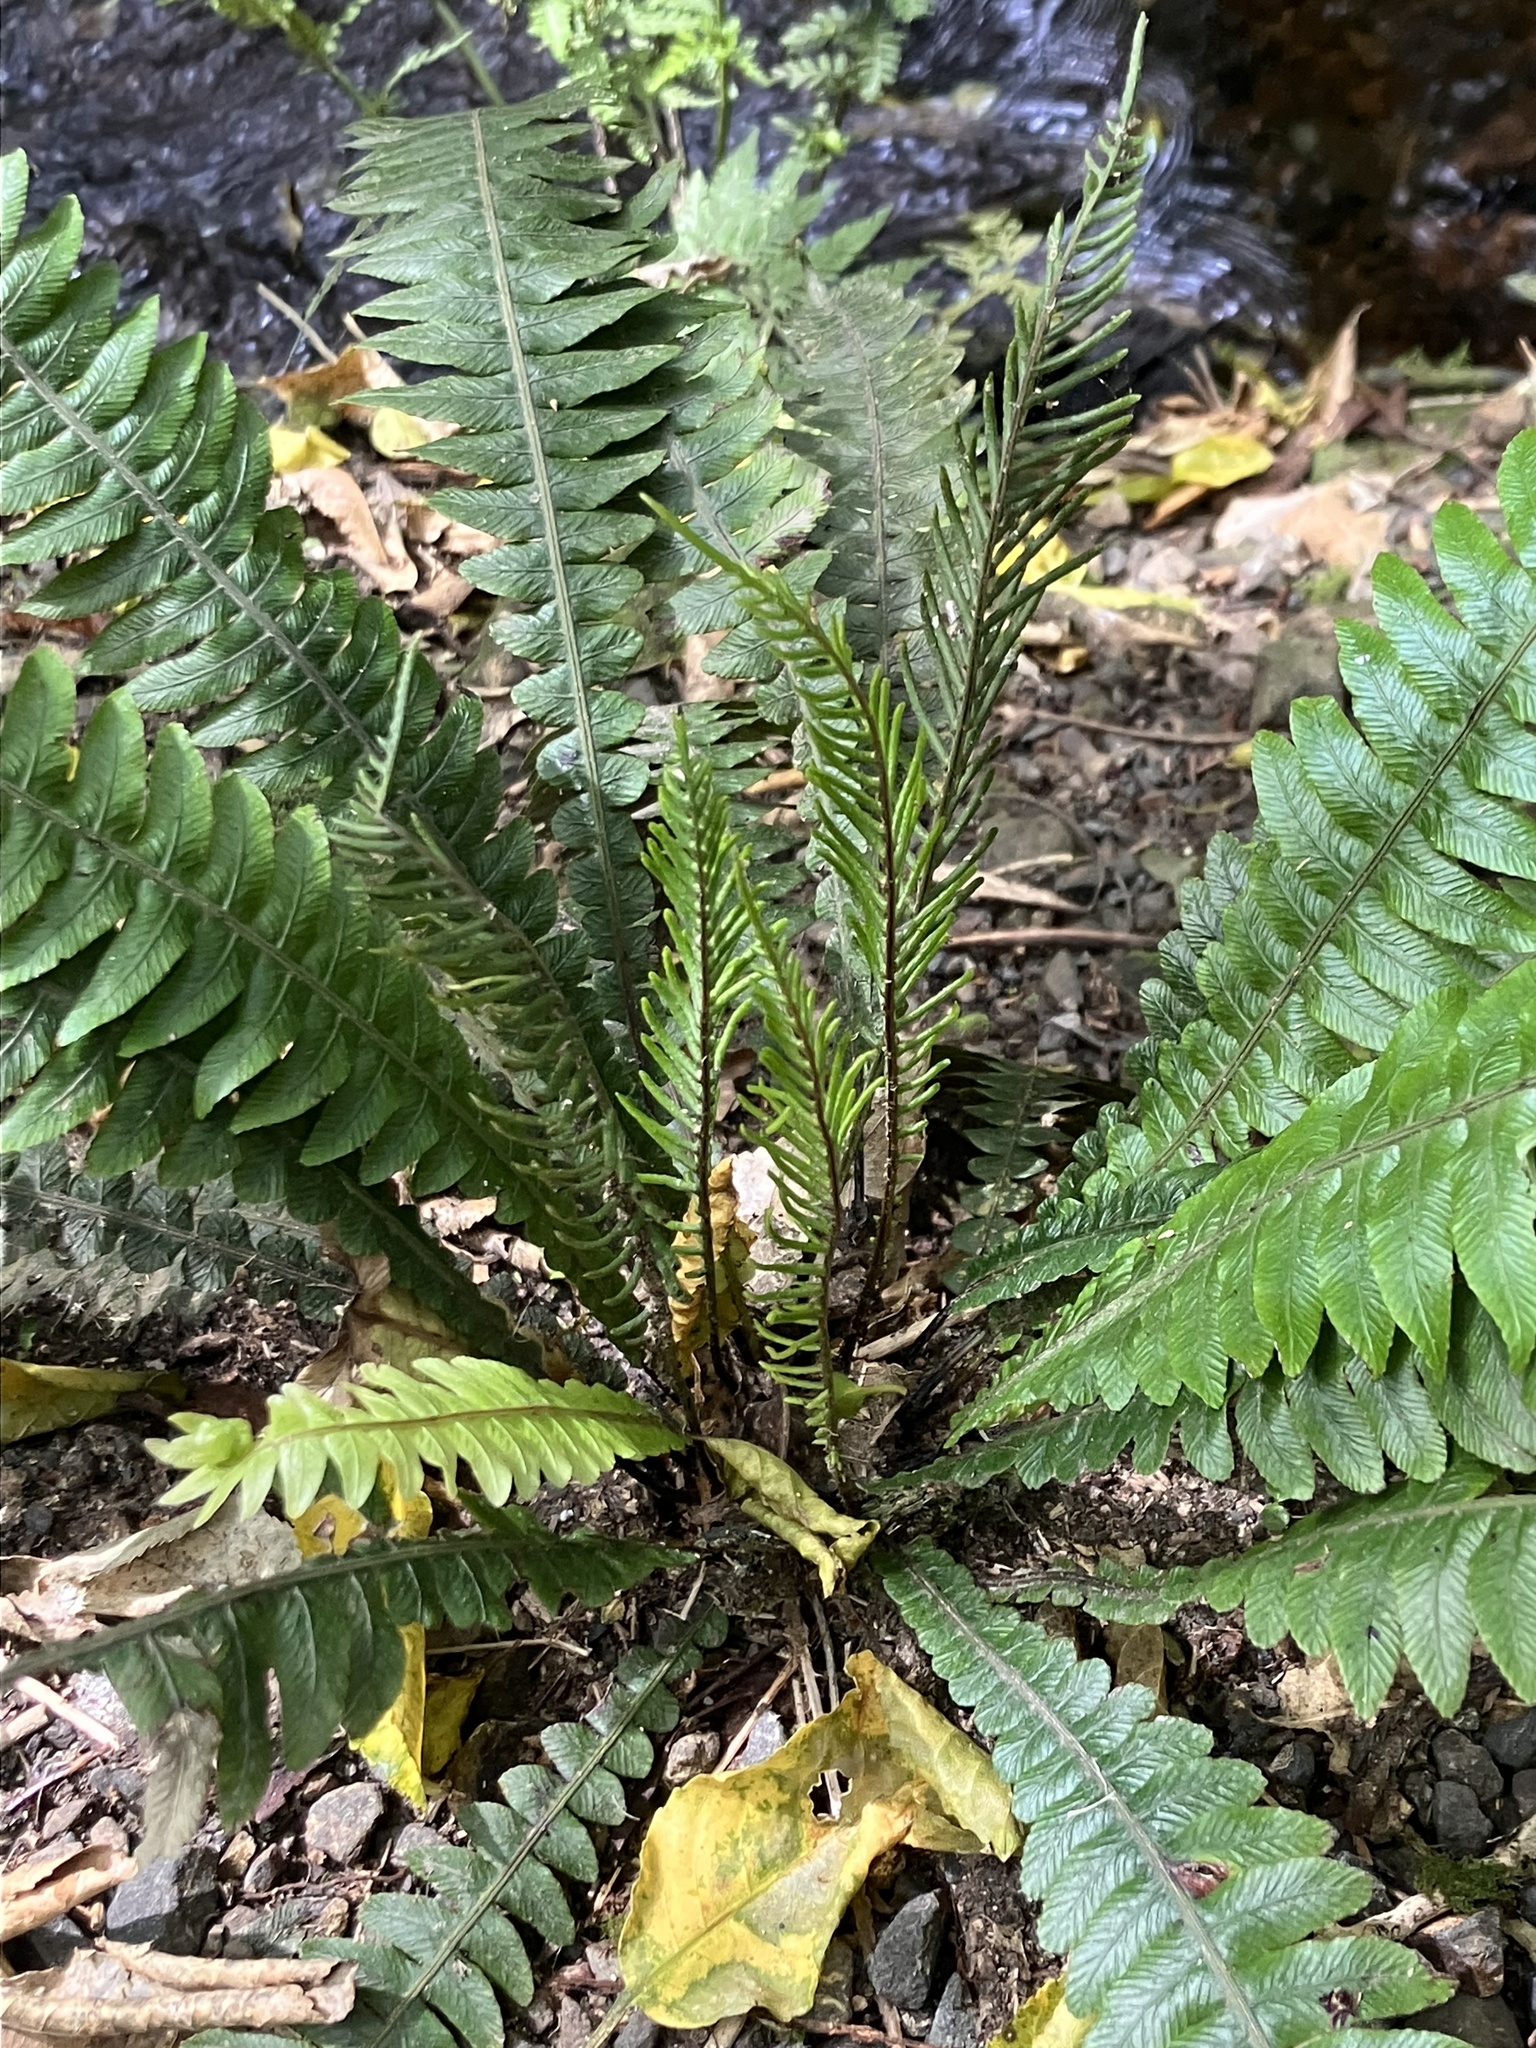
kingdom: Plantae
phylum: Tracheophyta
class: Polypodiopsida
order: Polypodiales
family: Blechnaceae
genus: Austroblechnum
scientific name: Austroblechnum lanceolatum
